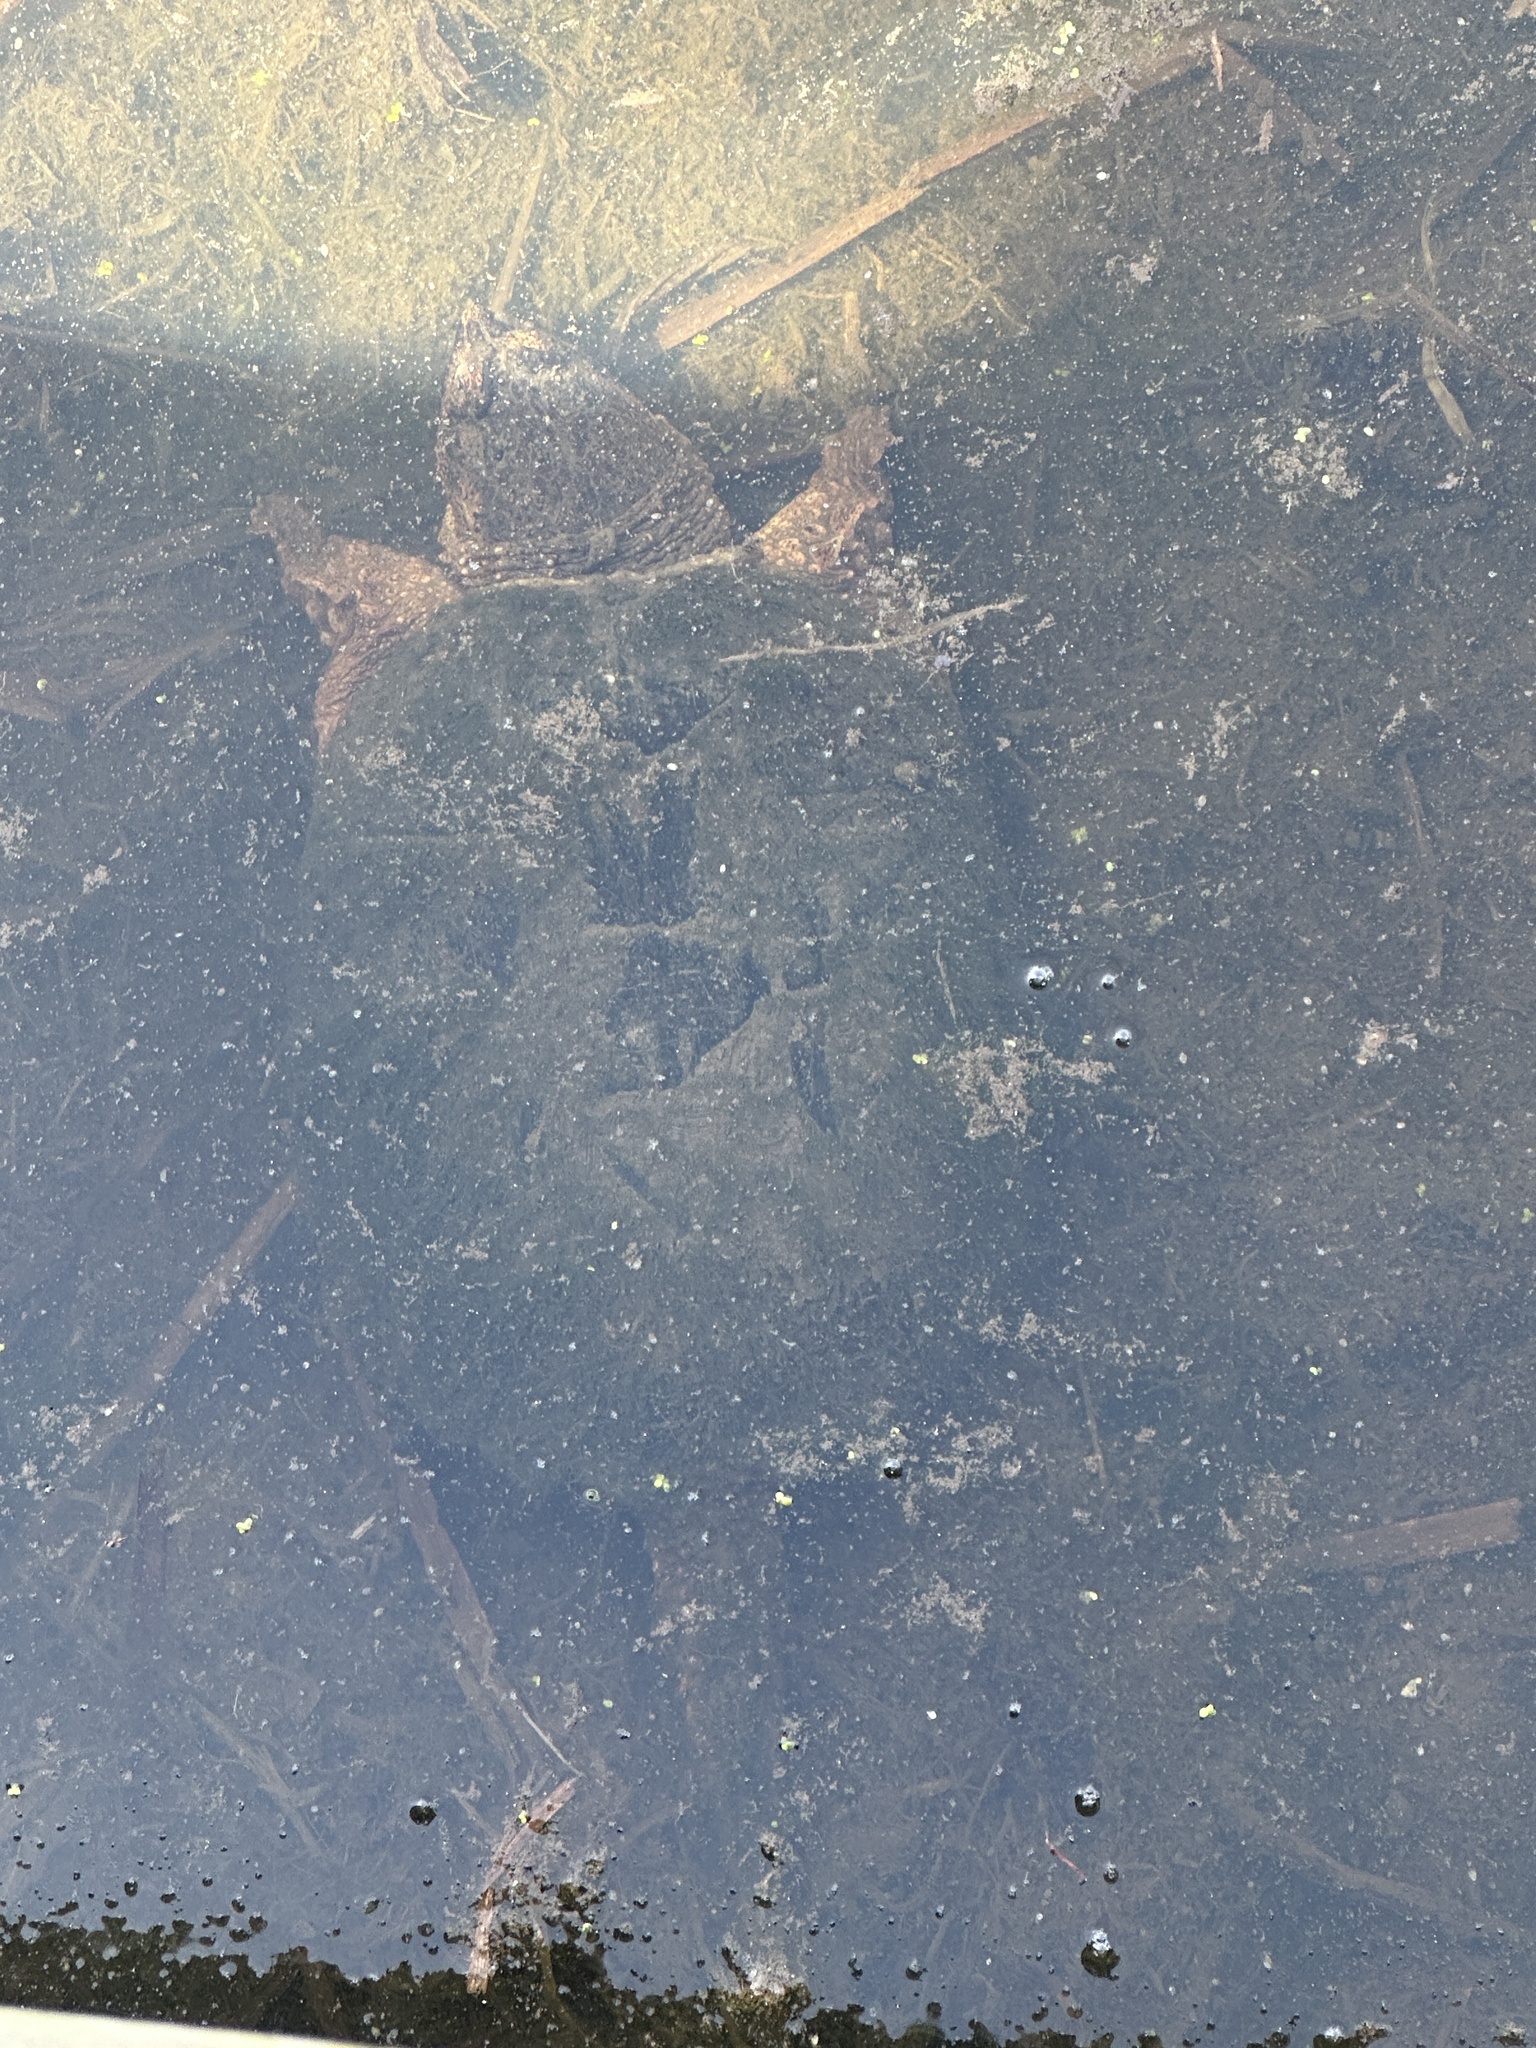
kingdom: Animalia
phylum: Chordata
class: Testudines
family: Chelydridae
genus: Chelydra
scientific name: Chelydra serpentina
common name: Common snapping turtle
